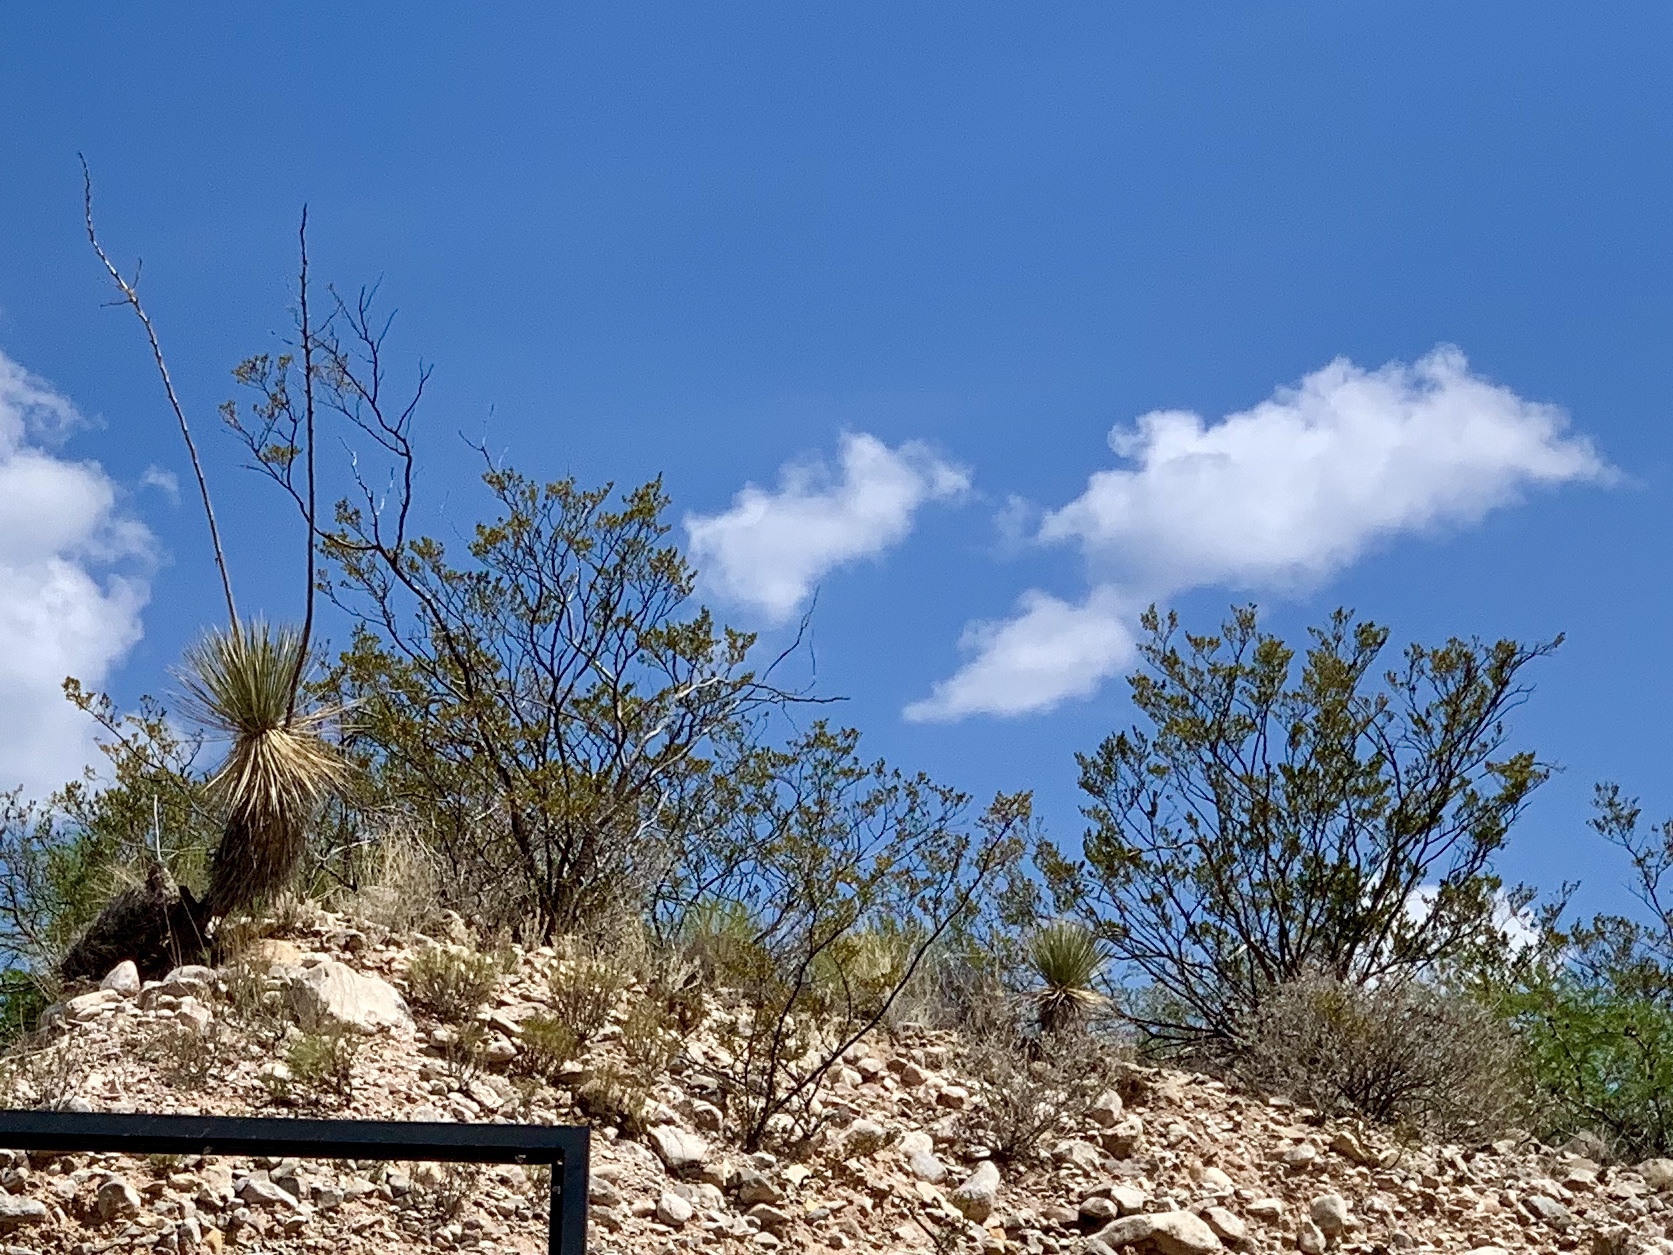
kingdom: Plantae
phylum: Tracheophyta
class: Magnoliopsida
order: Zygophyllales
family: Zygophyllaceae
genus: Larrea
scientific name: Larrea tridentata
